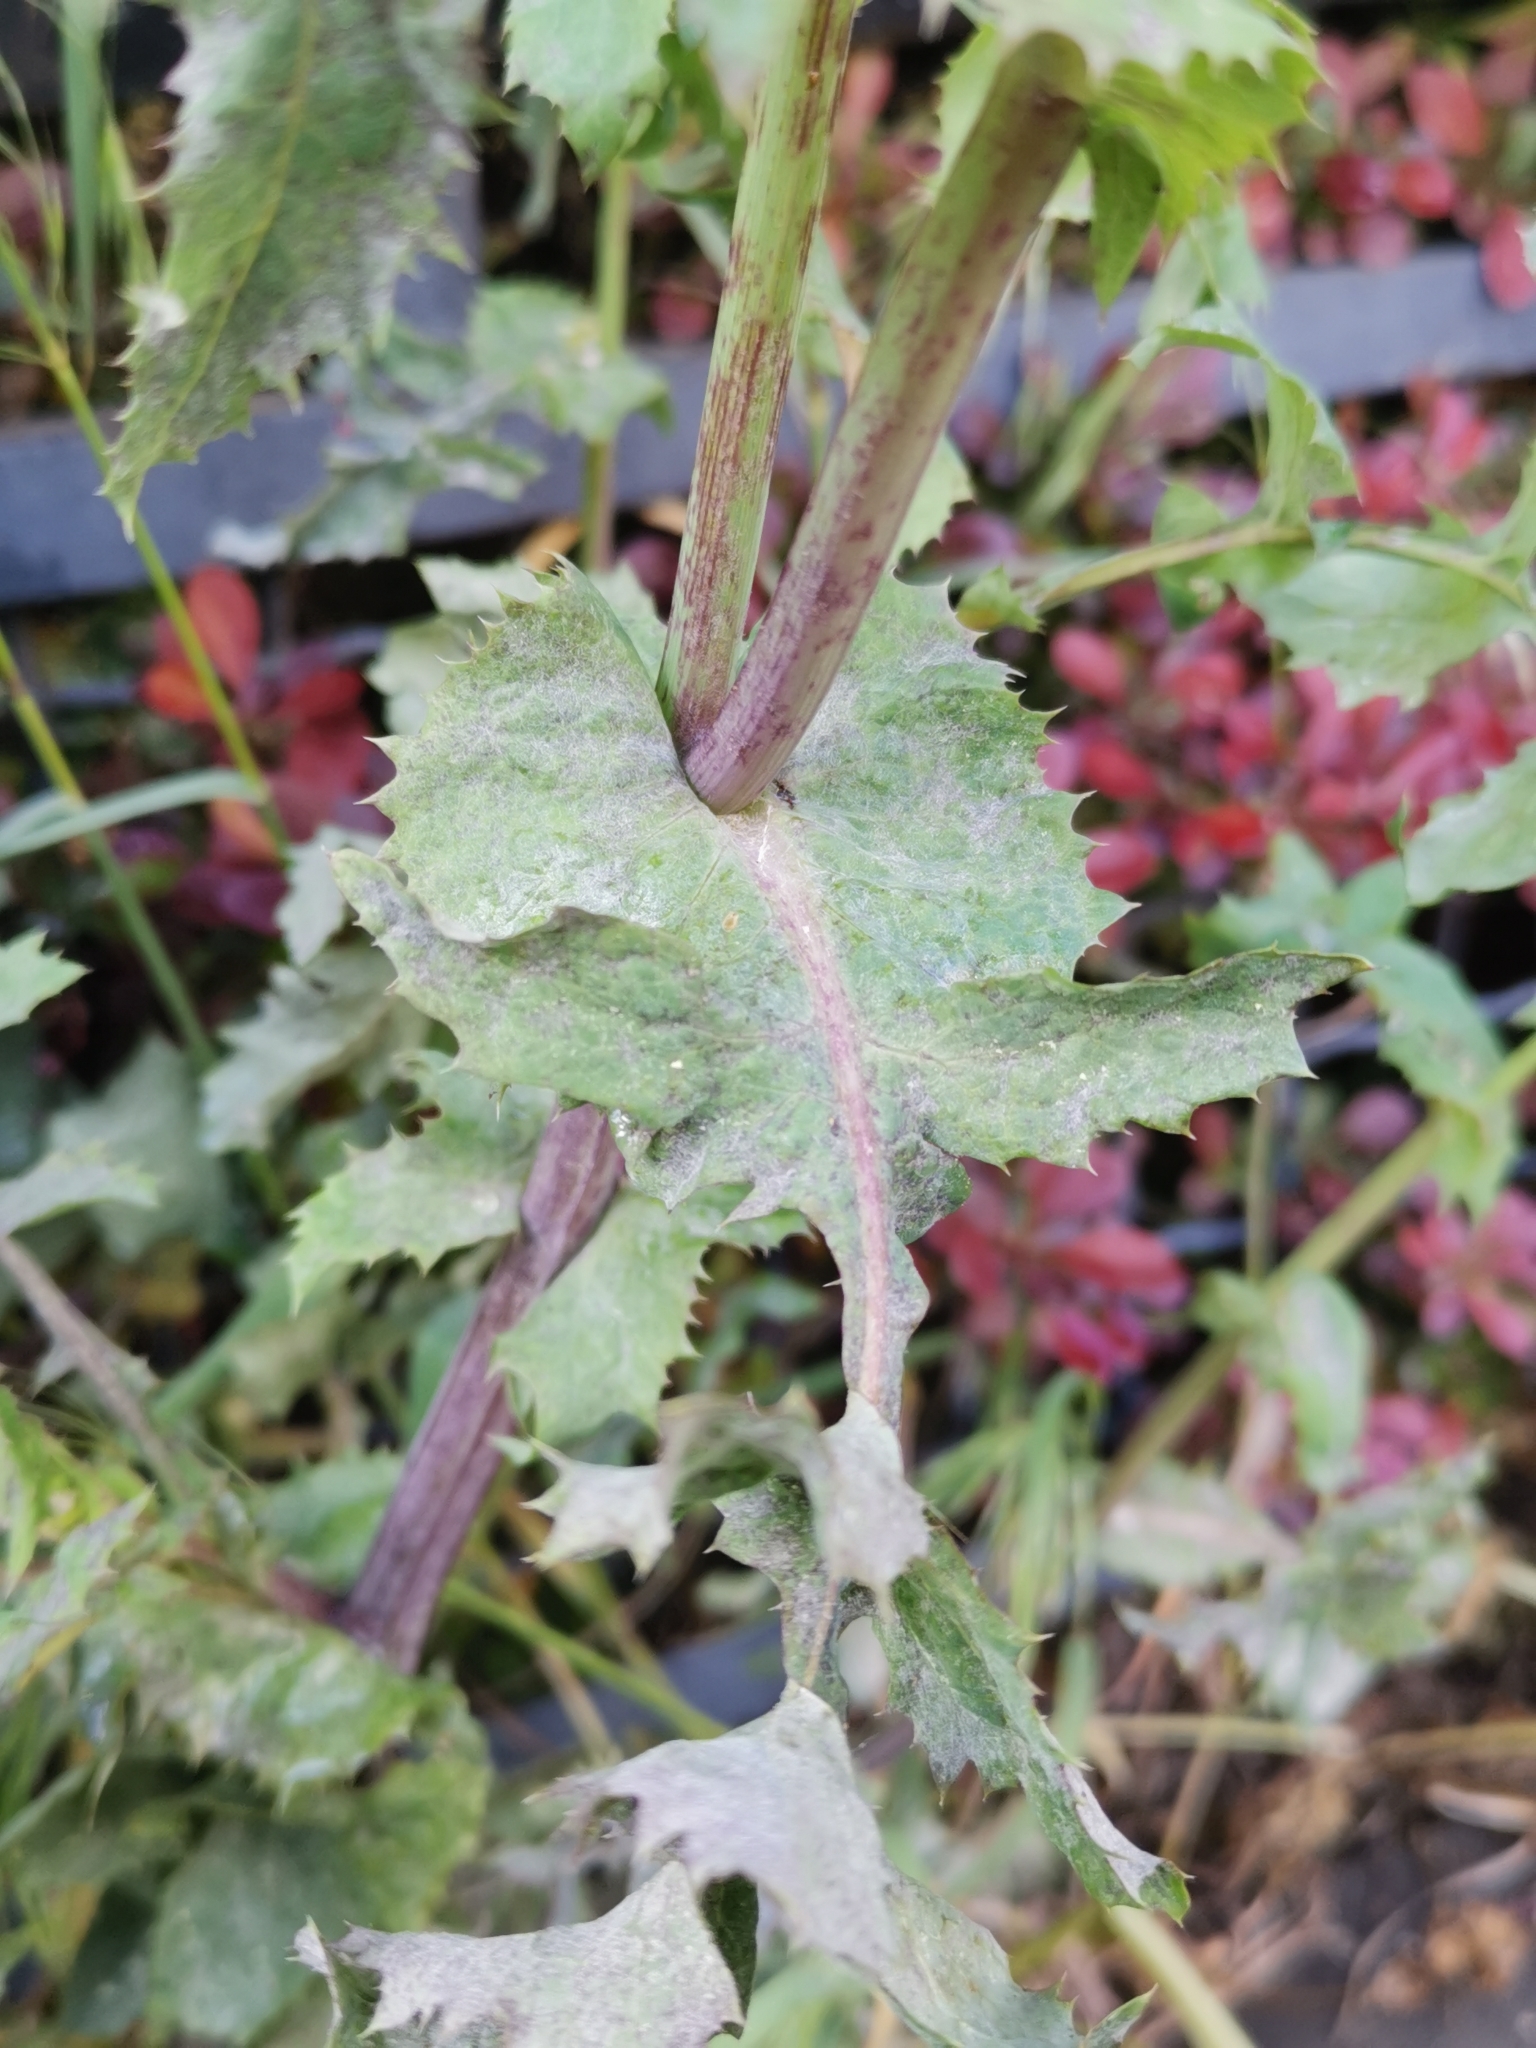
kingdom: Plantae
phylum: Tracheophyta
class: Magnoliopsida
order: Asterales
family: Asteraceae
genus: Sonchus
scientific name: Sonchus oleraceus
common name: Common sowthistle
